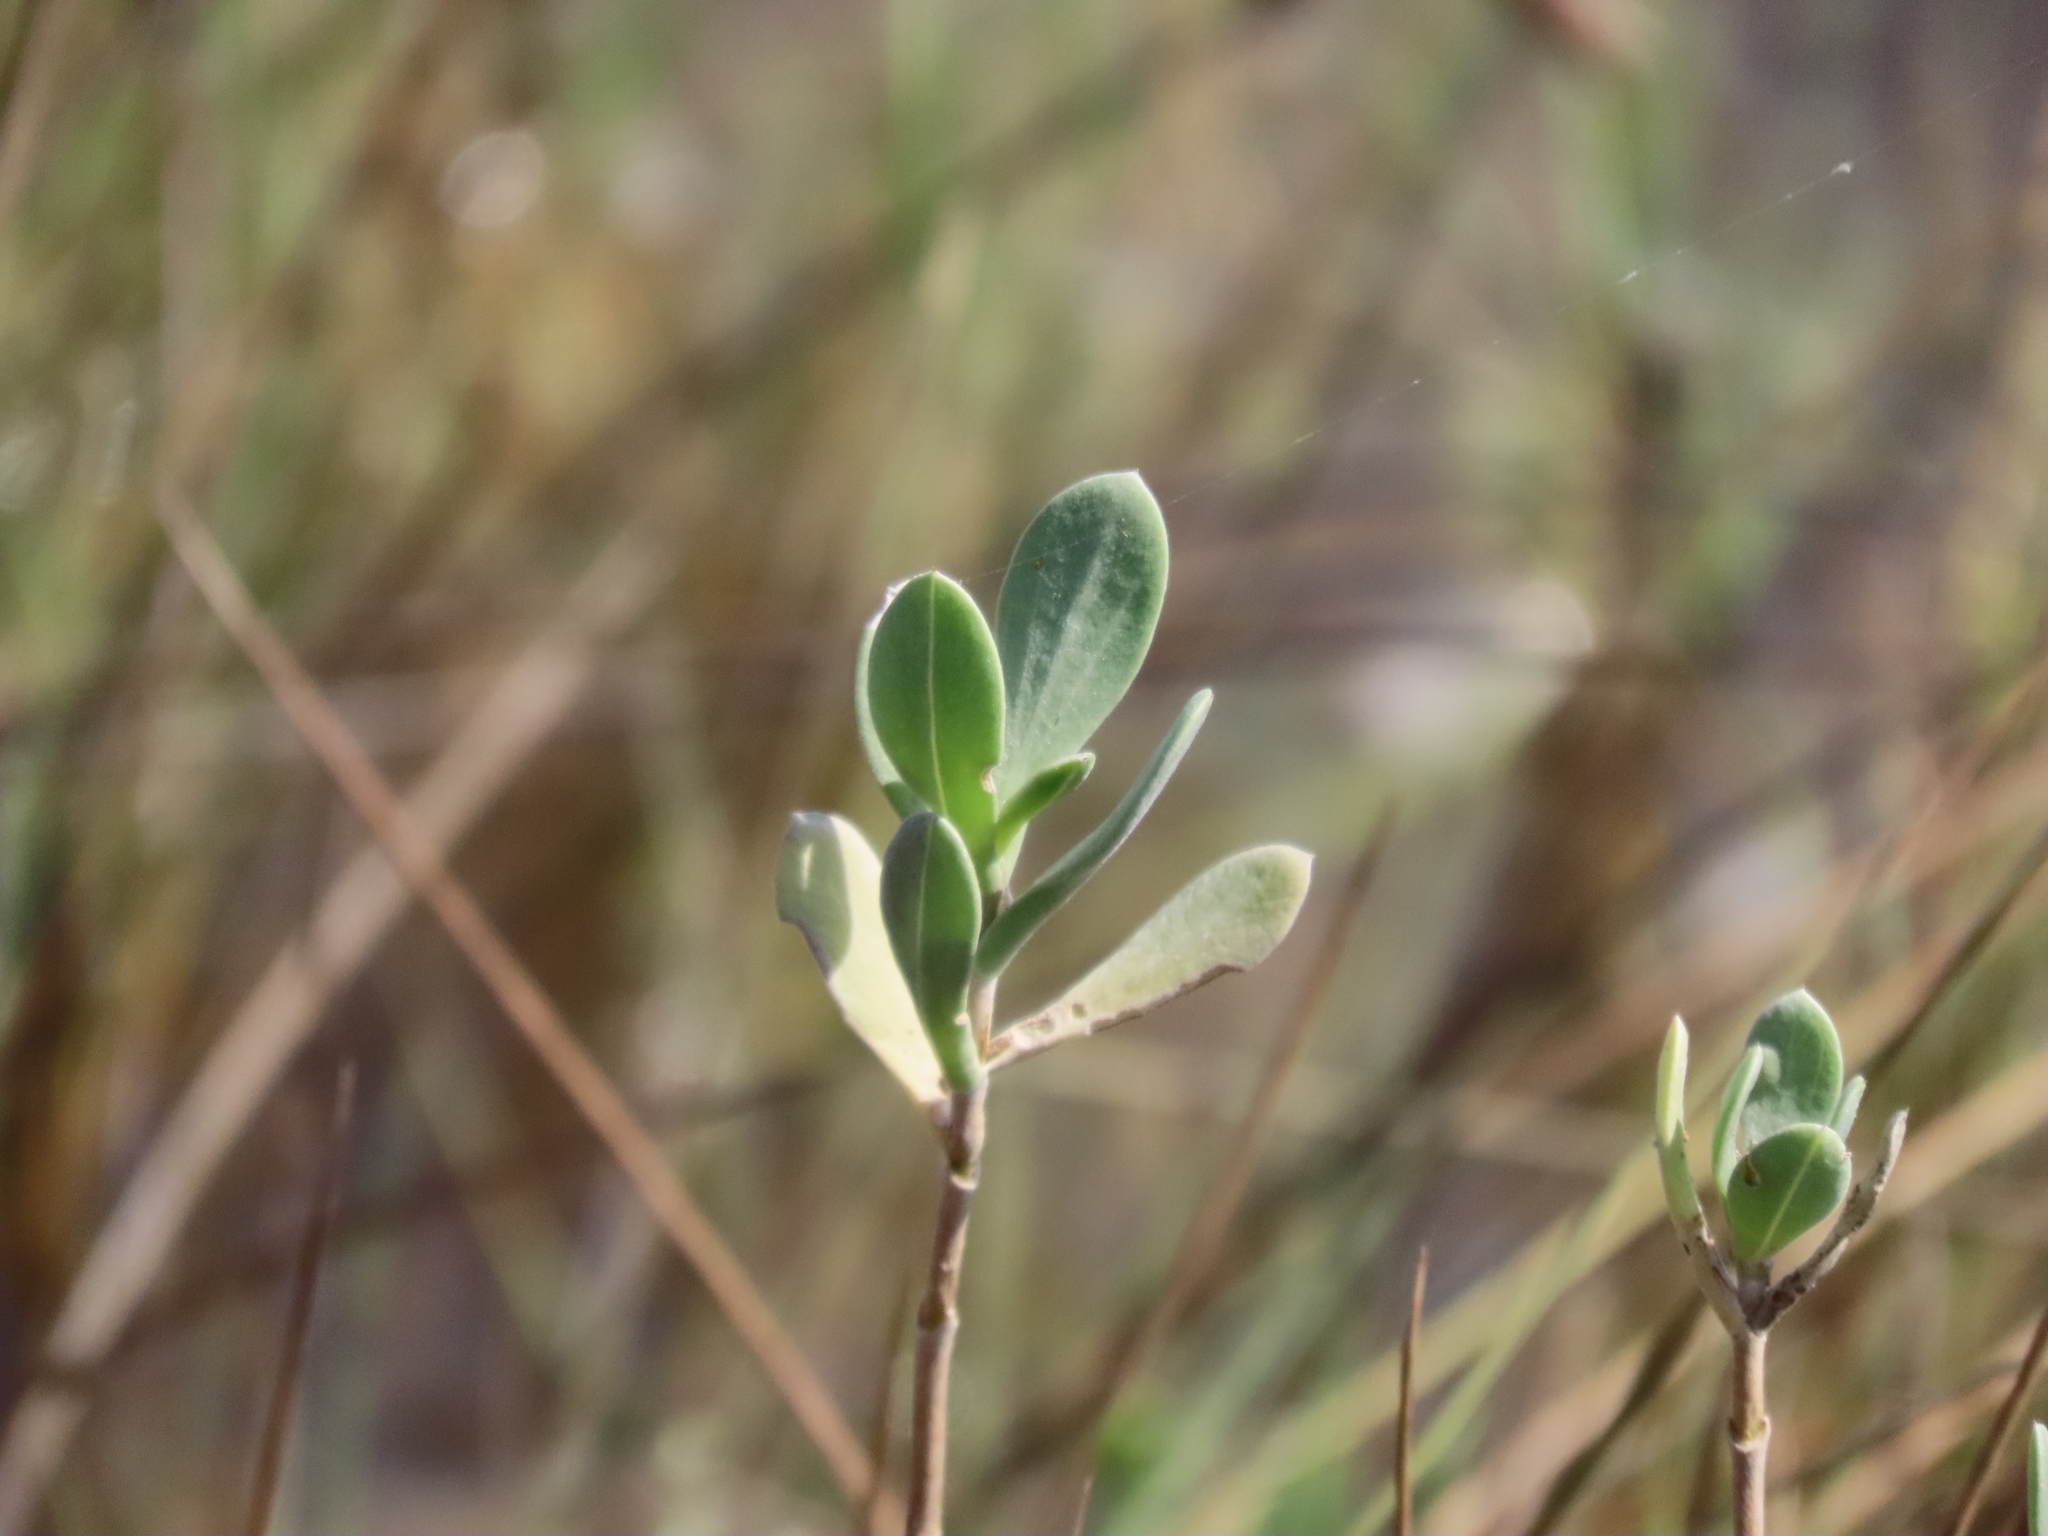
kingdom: Plantae
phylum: Tracheophyta
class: Magnoliopsida
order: Asterales
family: Asteraceae
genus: Borrichia
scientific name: Borrichia frutescens
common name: Sea oxeye
